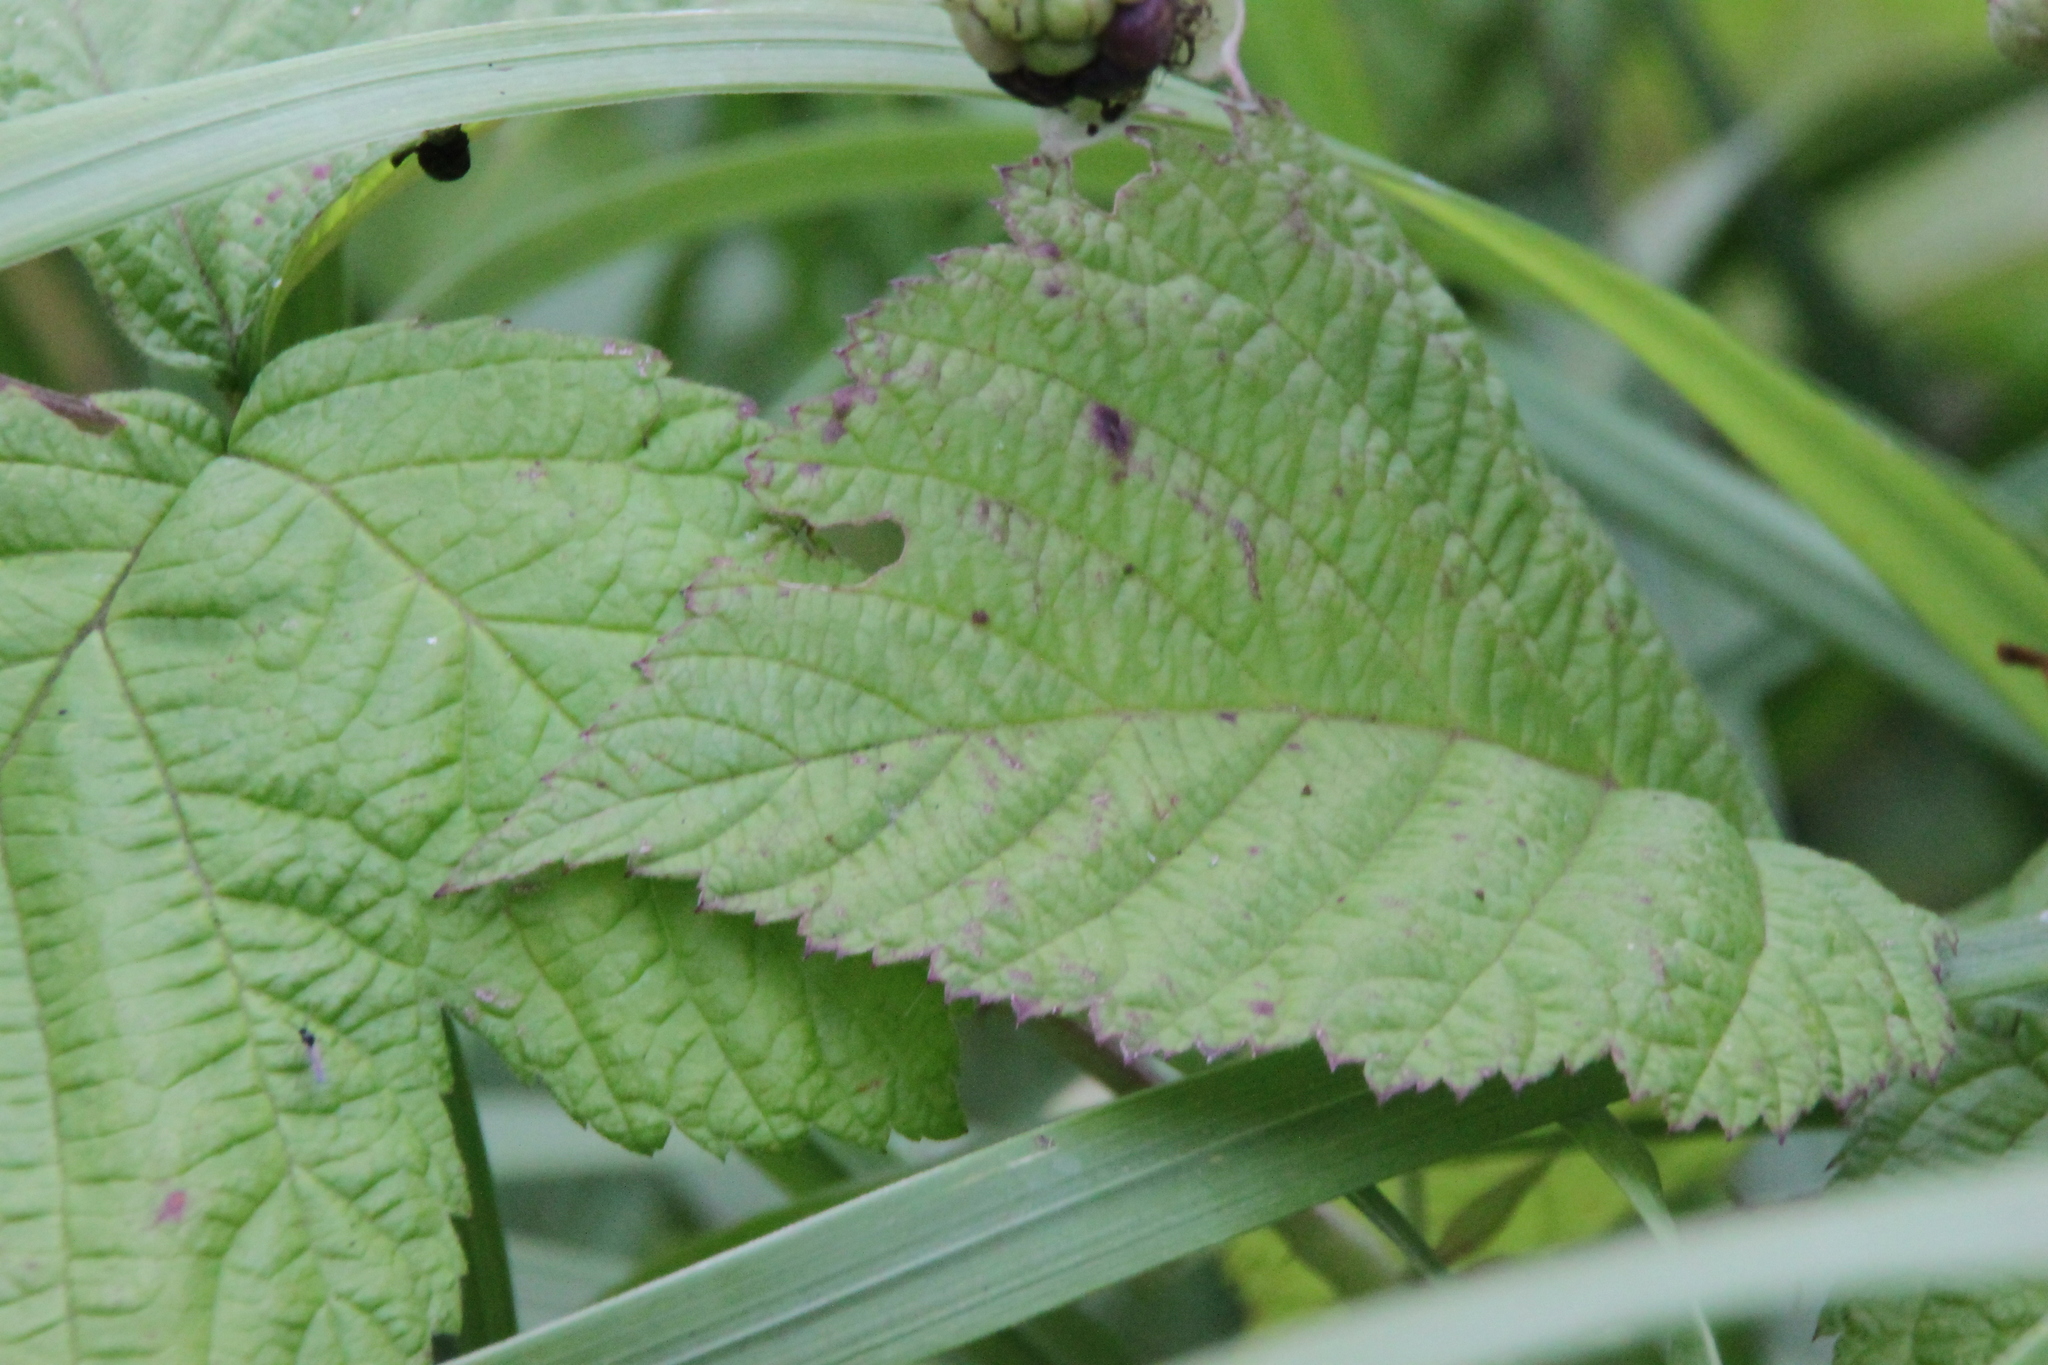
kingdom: Plantae
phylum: Tracheophyta
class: Magnoliopsida
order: Rosales
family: Rosaceae
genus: Rubus
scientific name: Rubus caesius
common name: Dewberry
